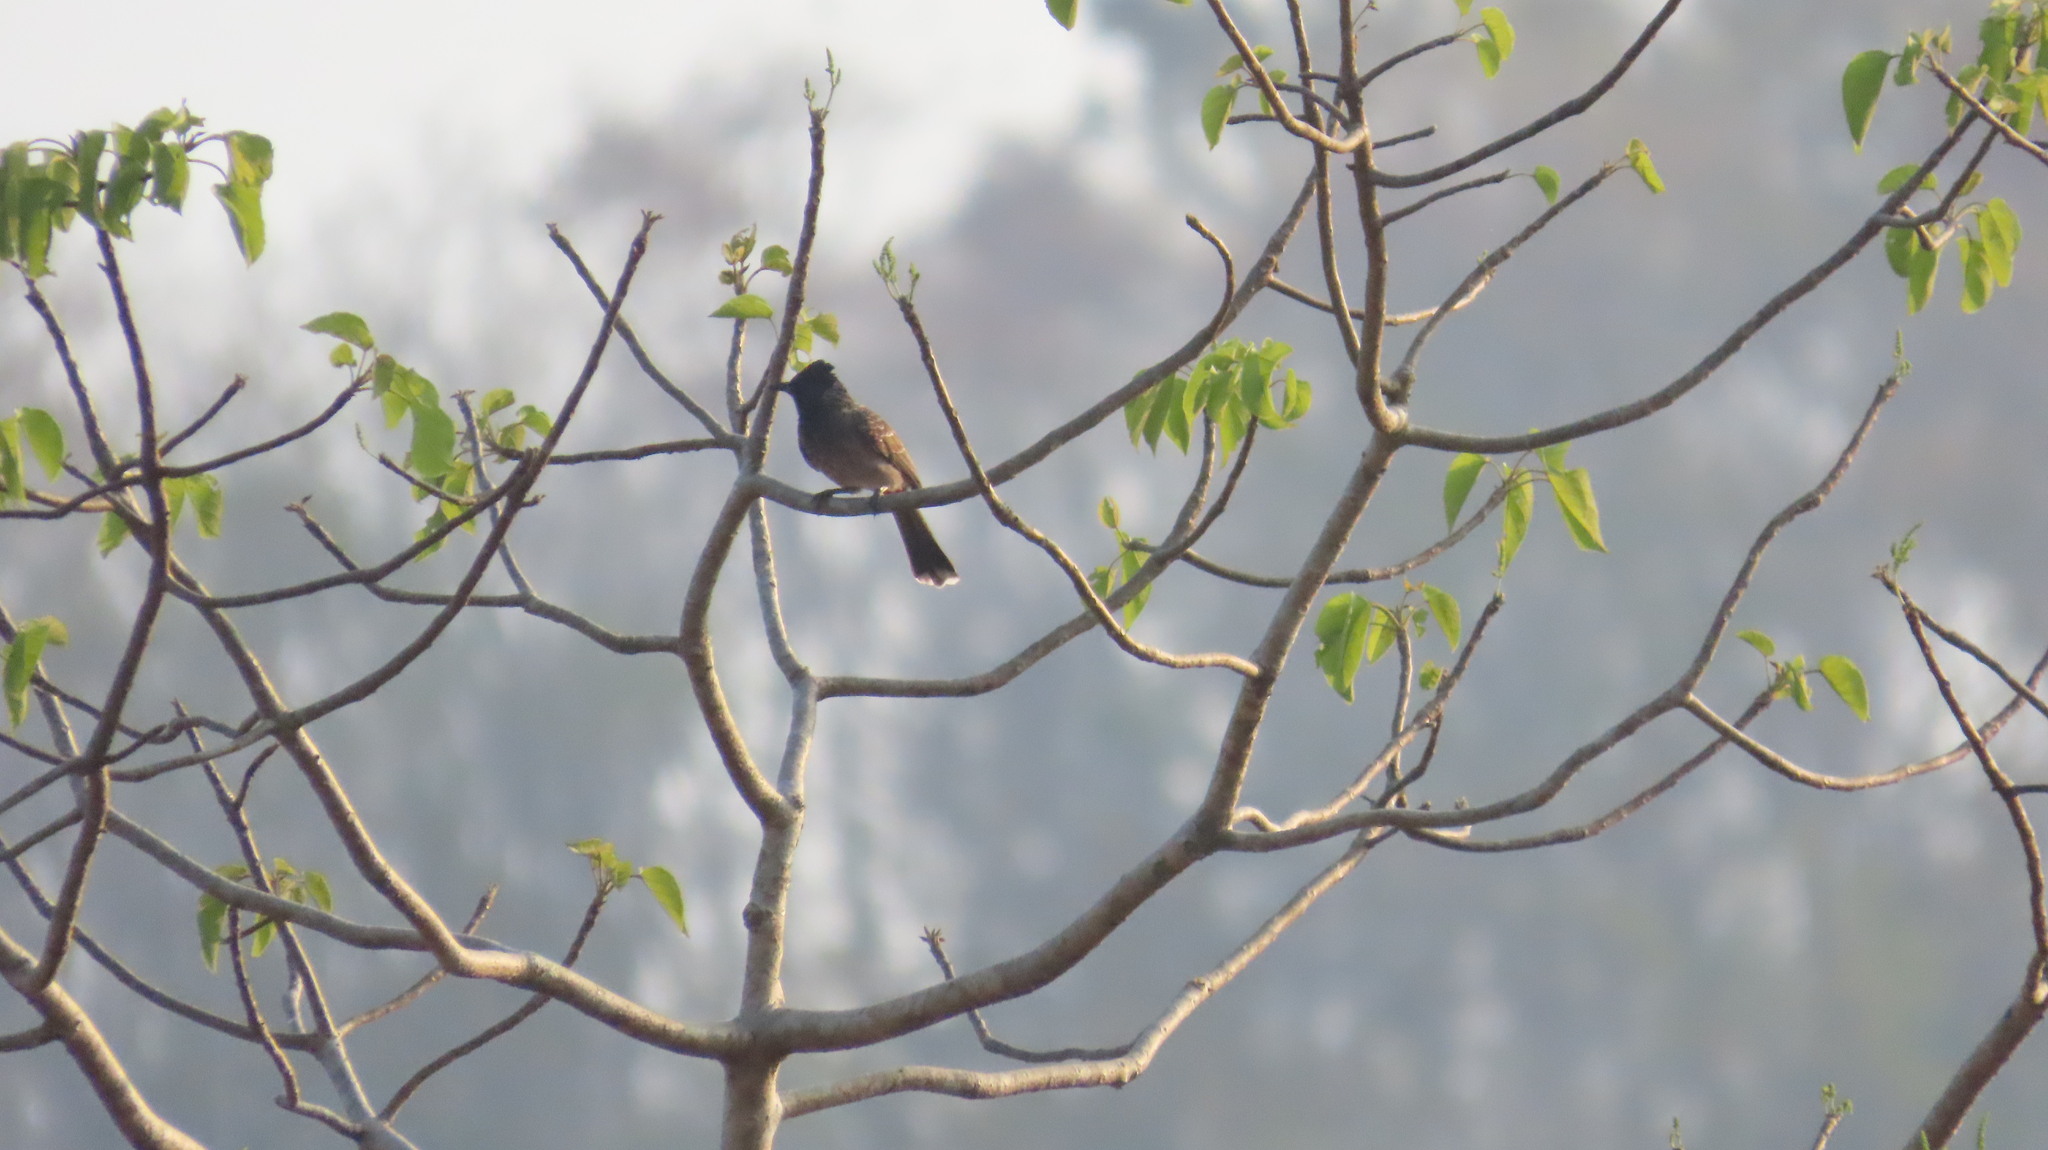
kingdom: Animalia
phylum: Chordata
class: Aves
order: Passeriformes
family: Pycnonotidae
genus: Pycnonotus
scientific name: Pycnonotus cafer
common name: Red-vented bulbul
